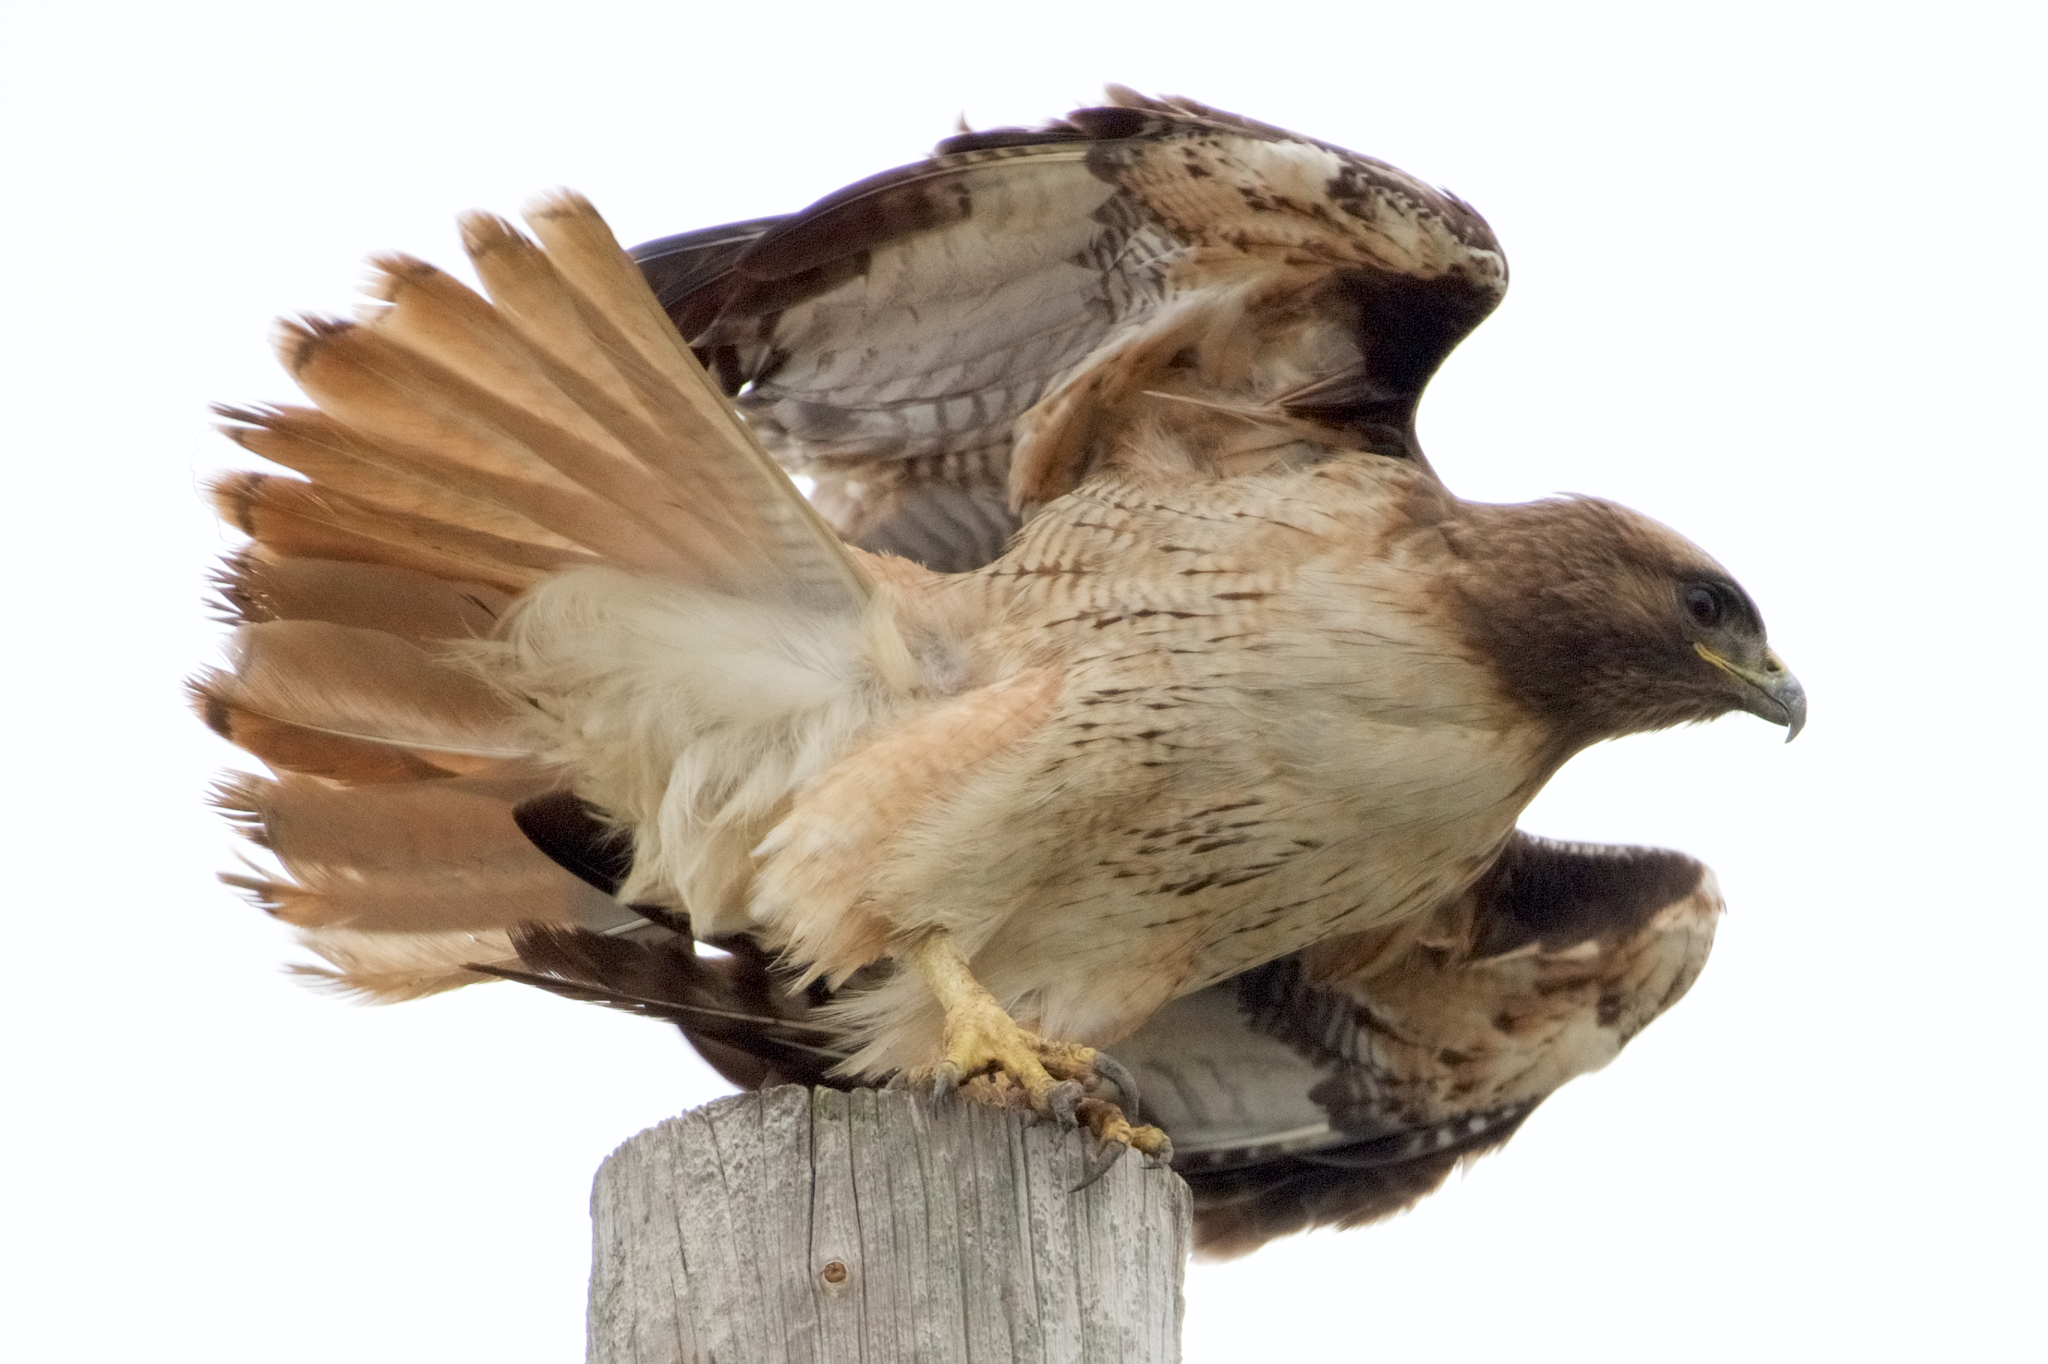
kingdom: Animalia
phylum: Chordata
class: Aves
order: Accipitriformes
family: Accipitridae
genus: Buteo
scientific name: Buteo jamaicensis
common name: Red-tailed hawk
